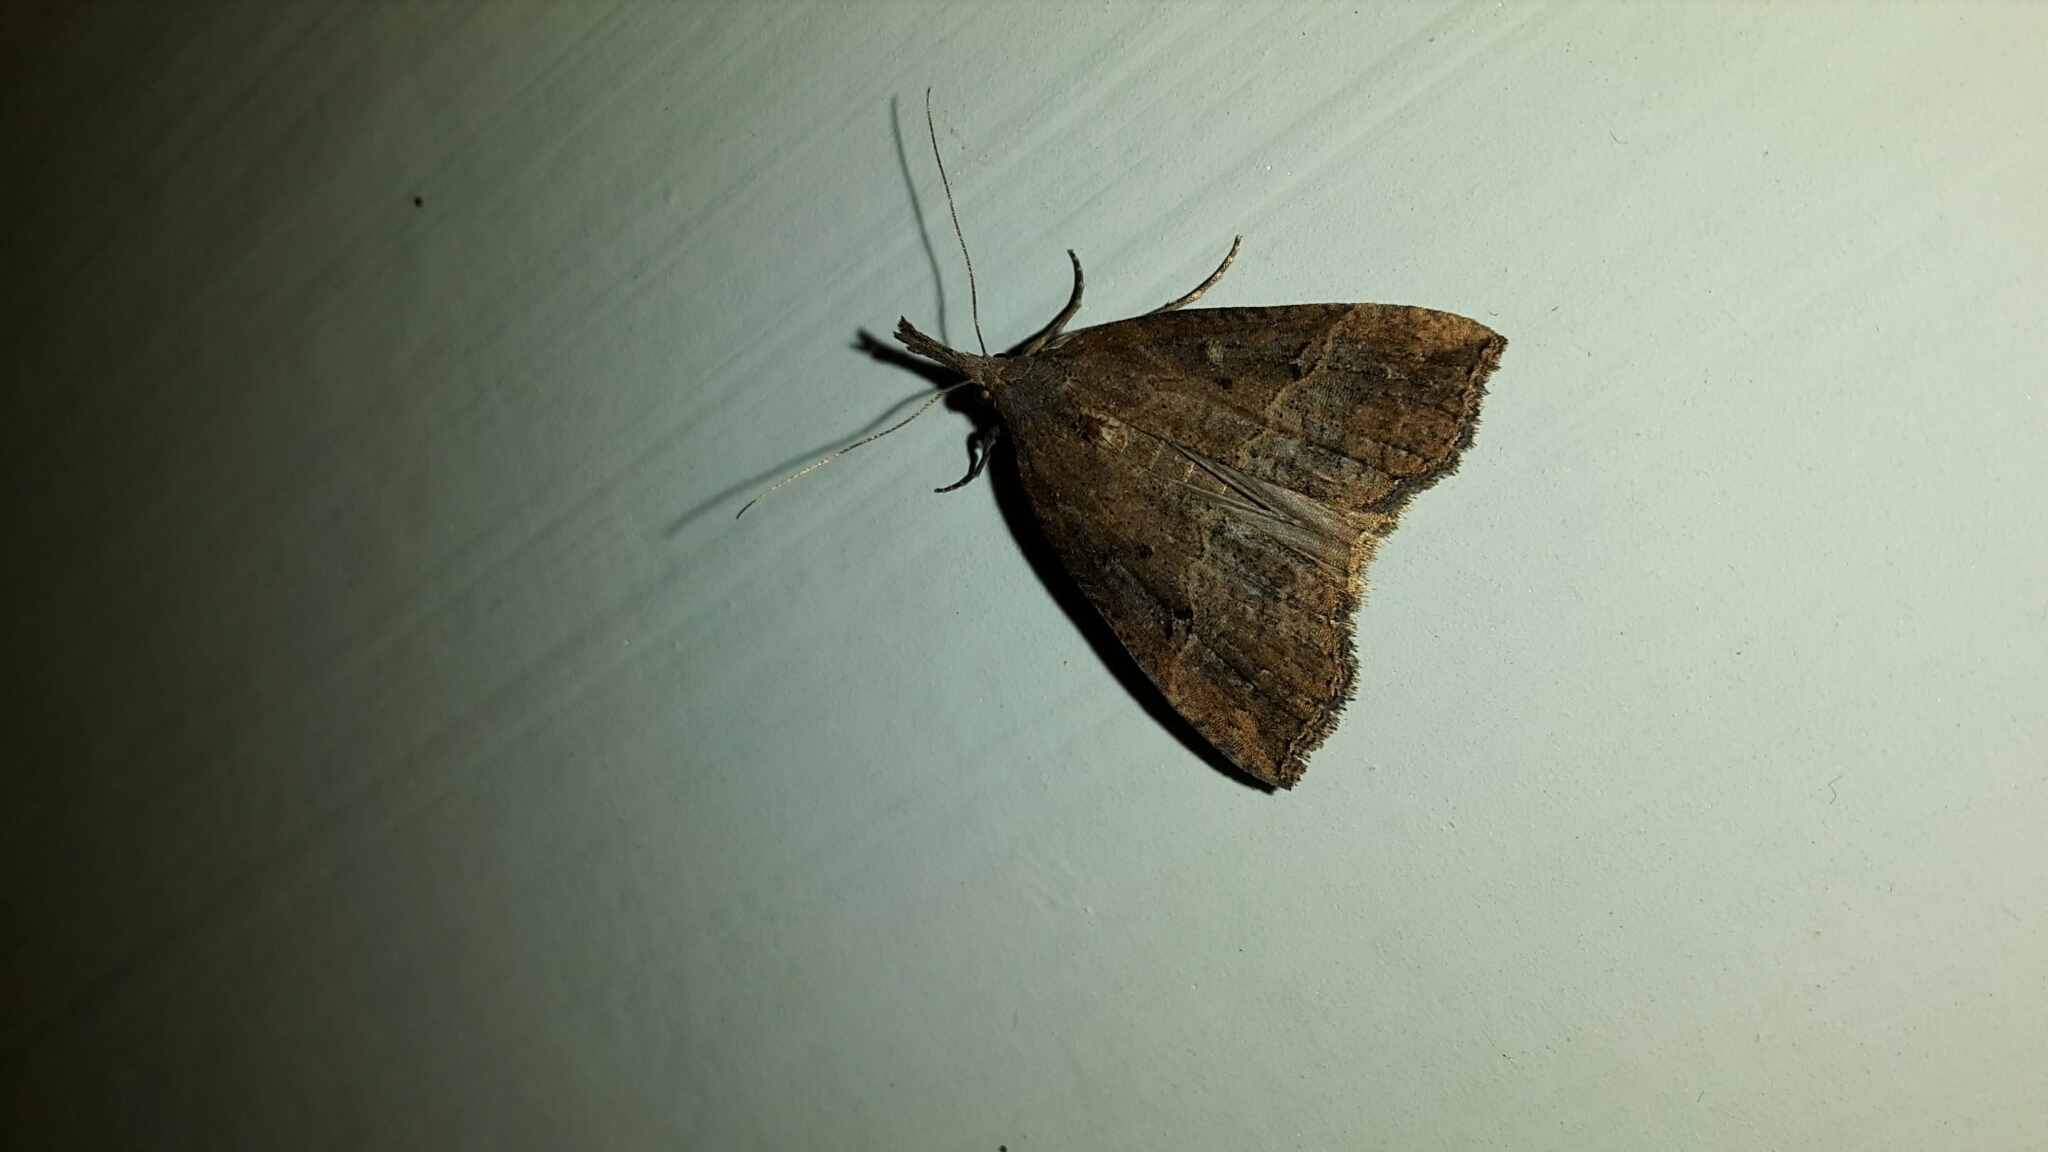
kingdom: Animalia
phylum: Arthropoda
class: Insecta
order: Lepidoptera
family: Erebidae
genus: Hypena
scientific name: Hypena rostralis
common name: Buttoned snout
